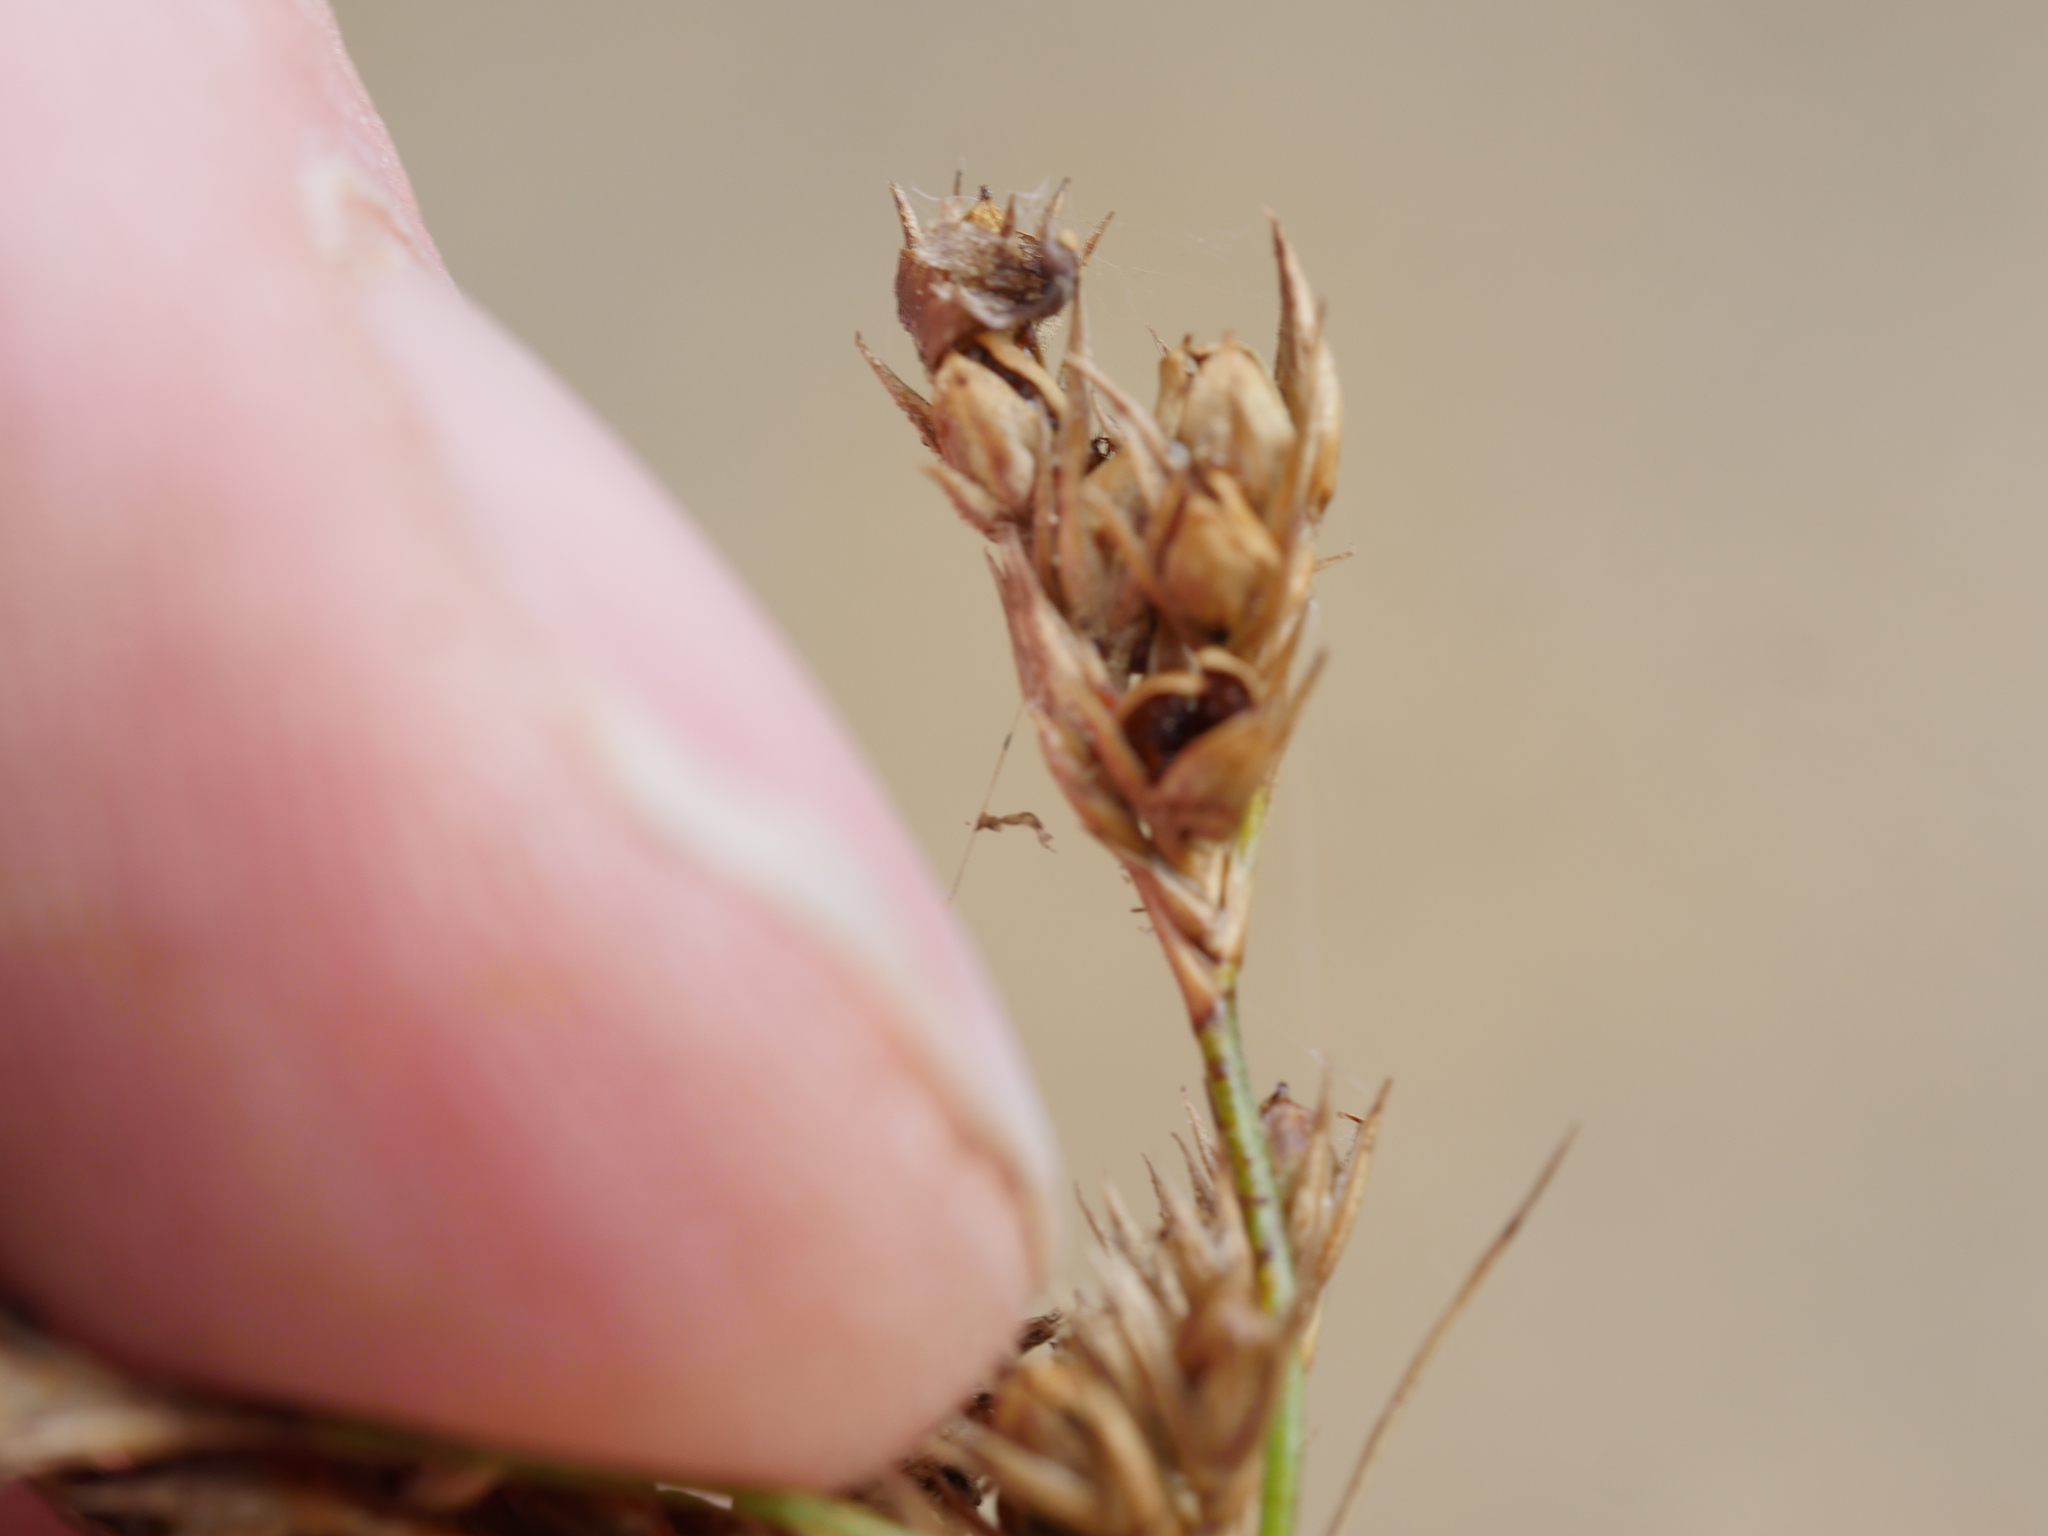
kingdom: Plantae
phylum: Tracheophyta
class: Liliopsida
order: Poales
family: Juncaceae
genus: Juncus
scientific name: Juncus tenuis
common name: Slender rush
